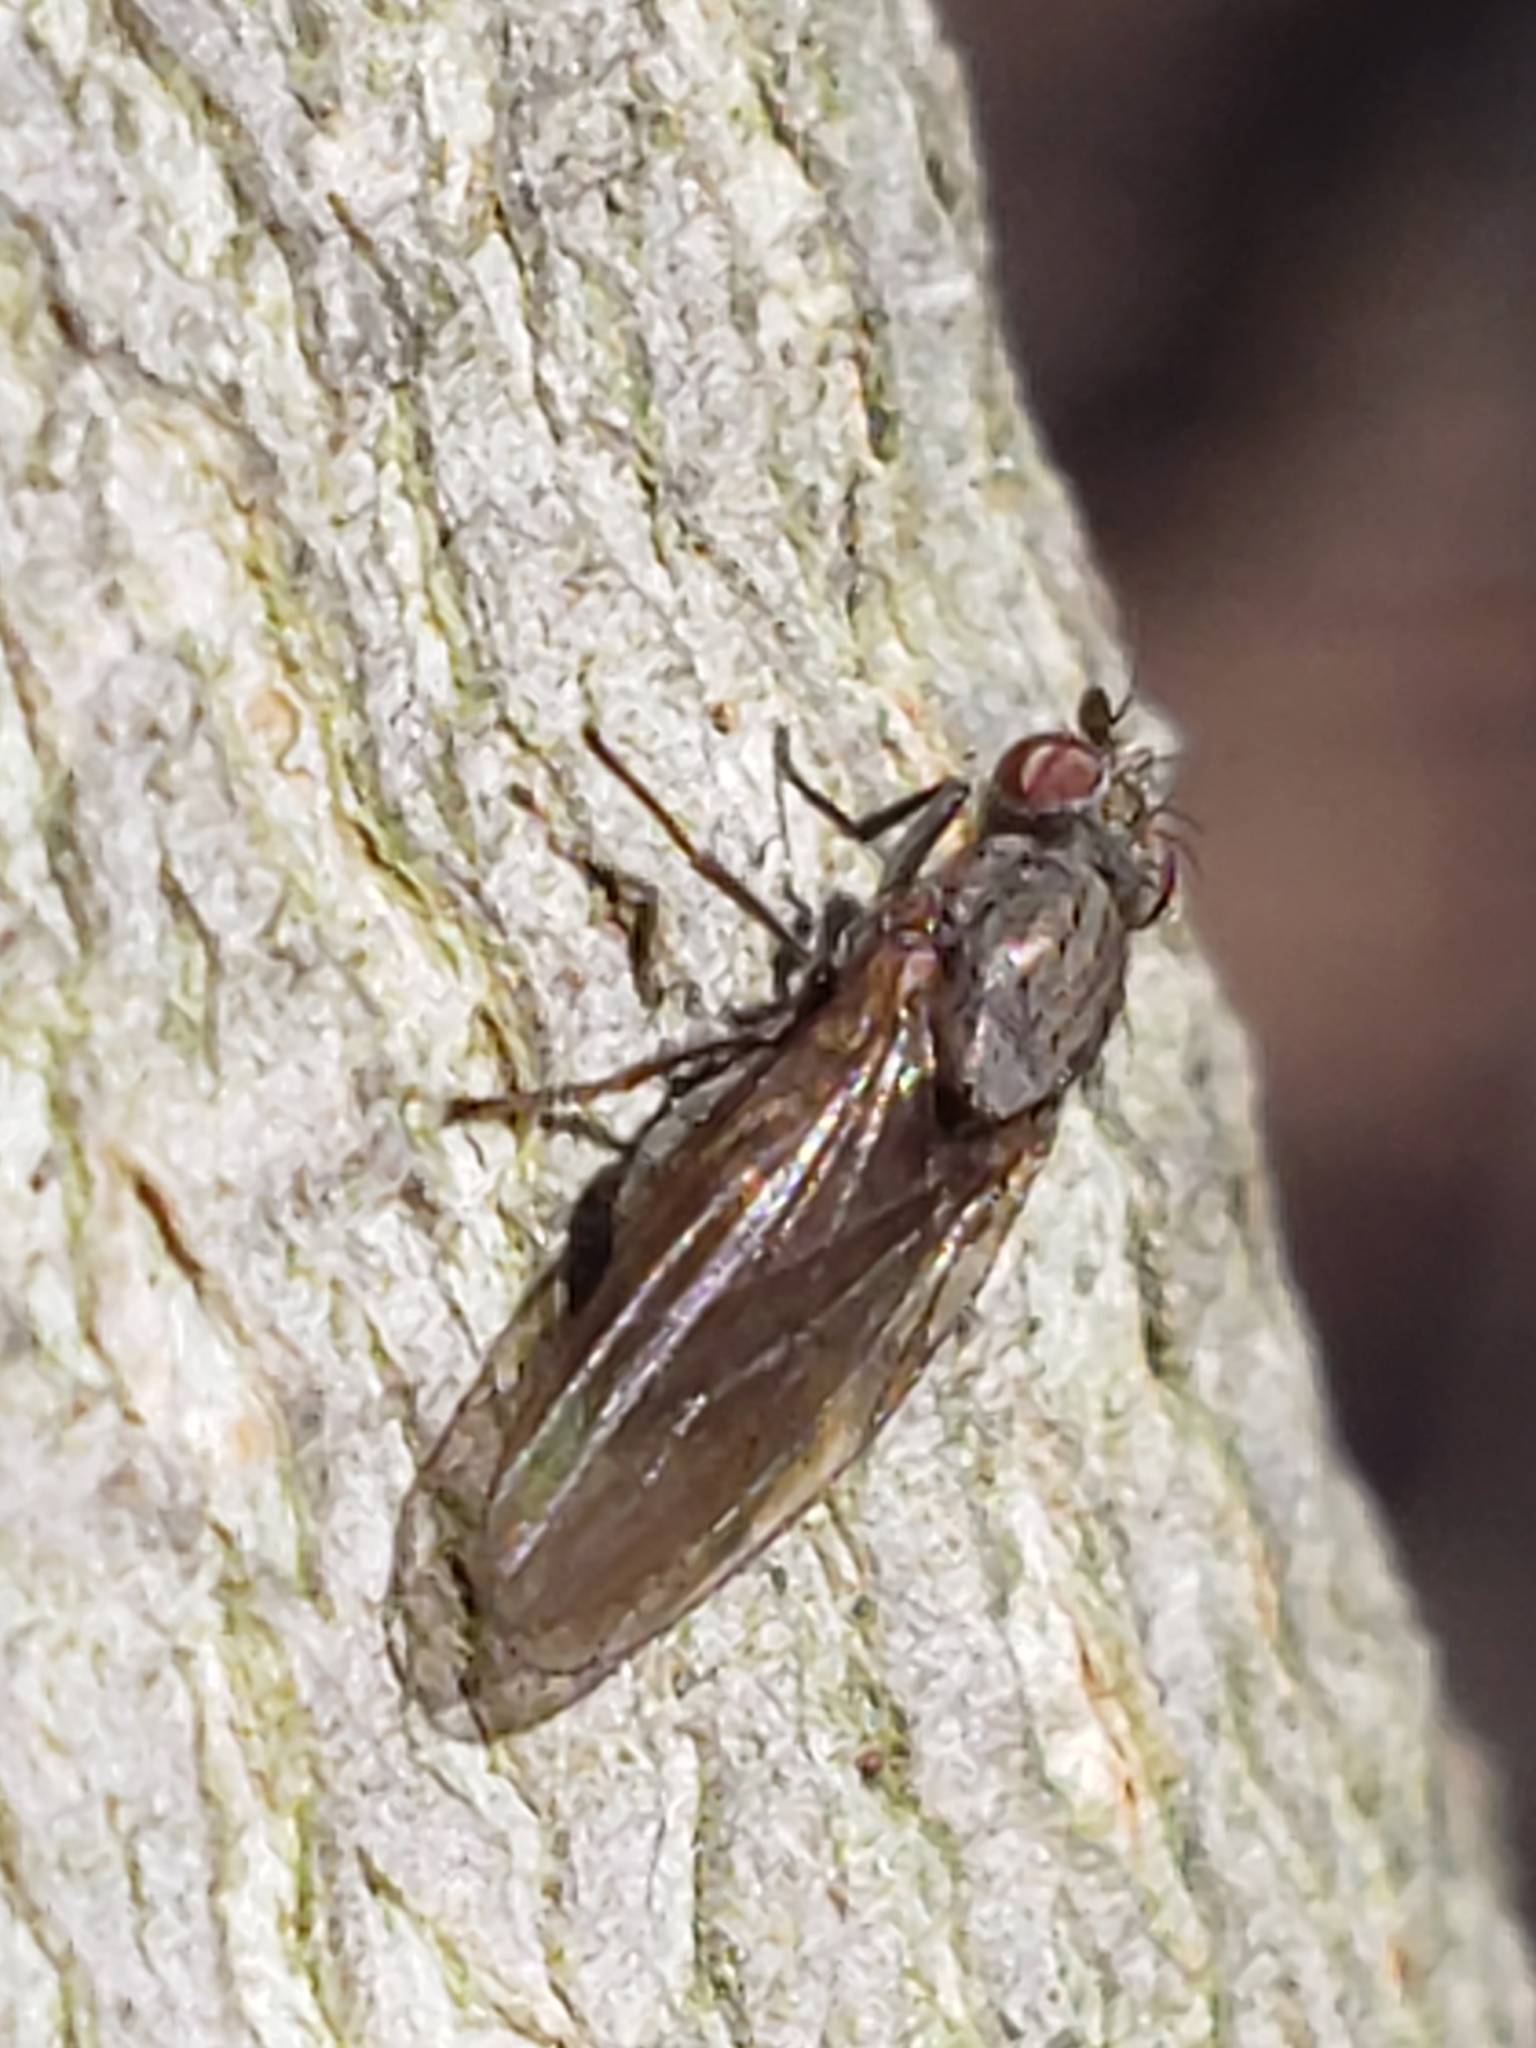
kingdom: Animalia
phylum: Arthropoda
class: Insecta
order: Diptera
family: Lauxaniidae
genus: Sapromyza
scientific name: Sapromyza brachysoma
